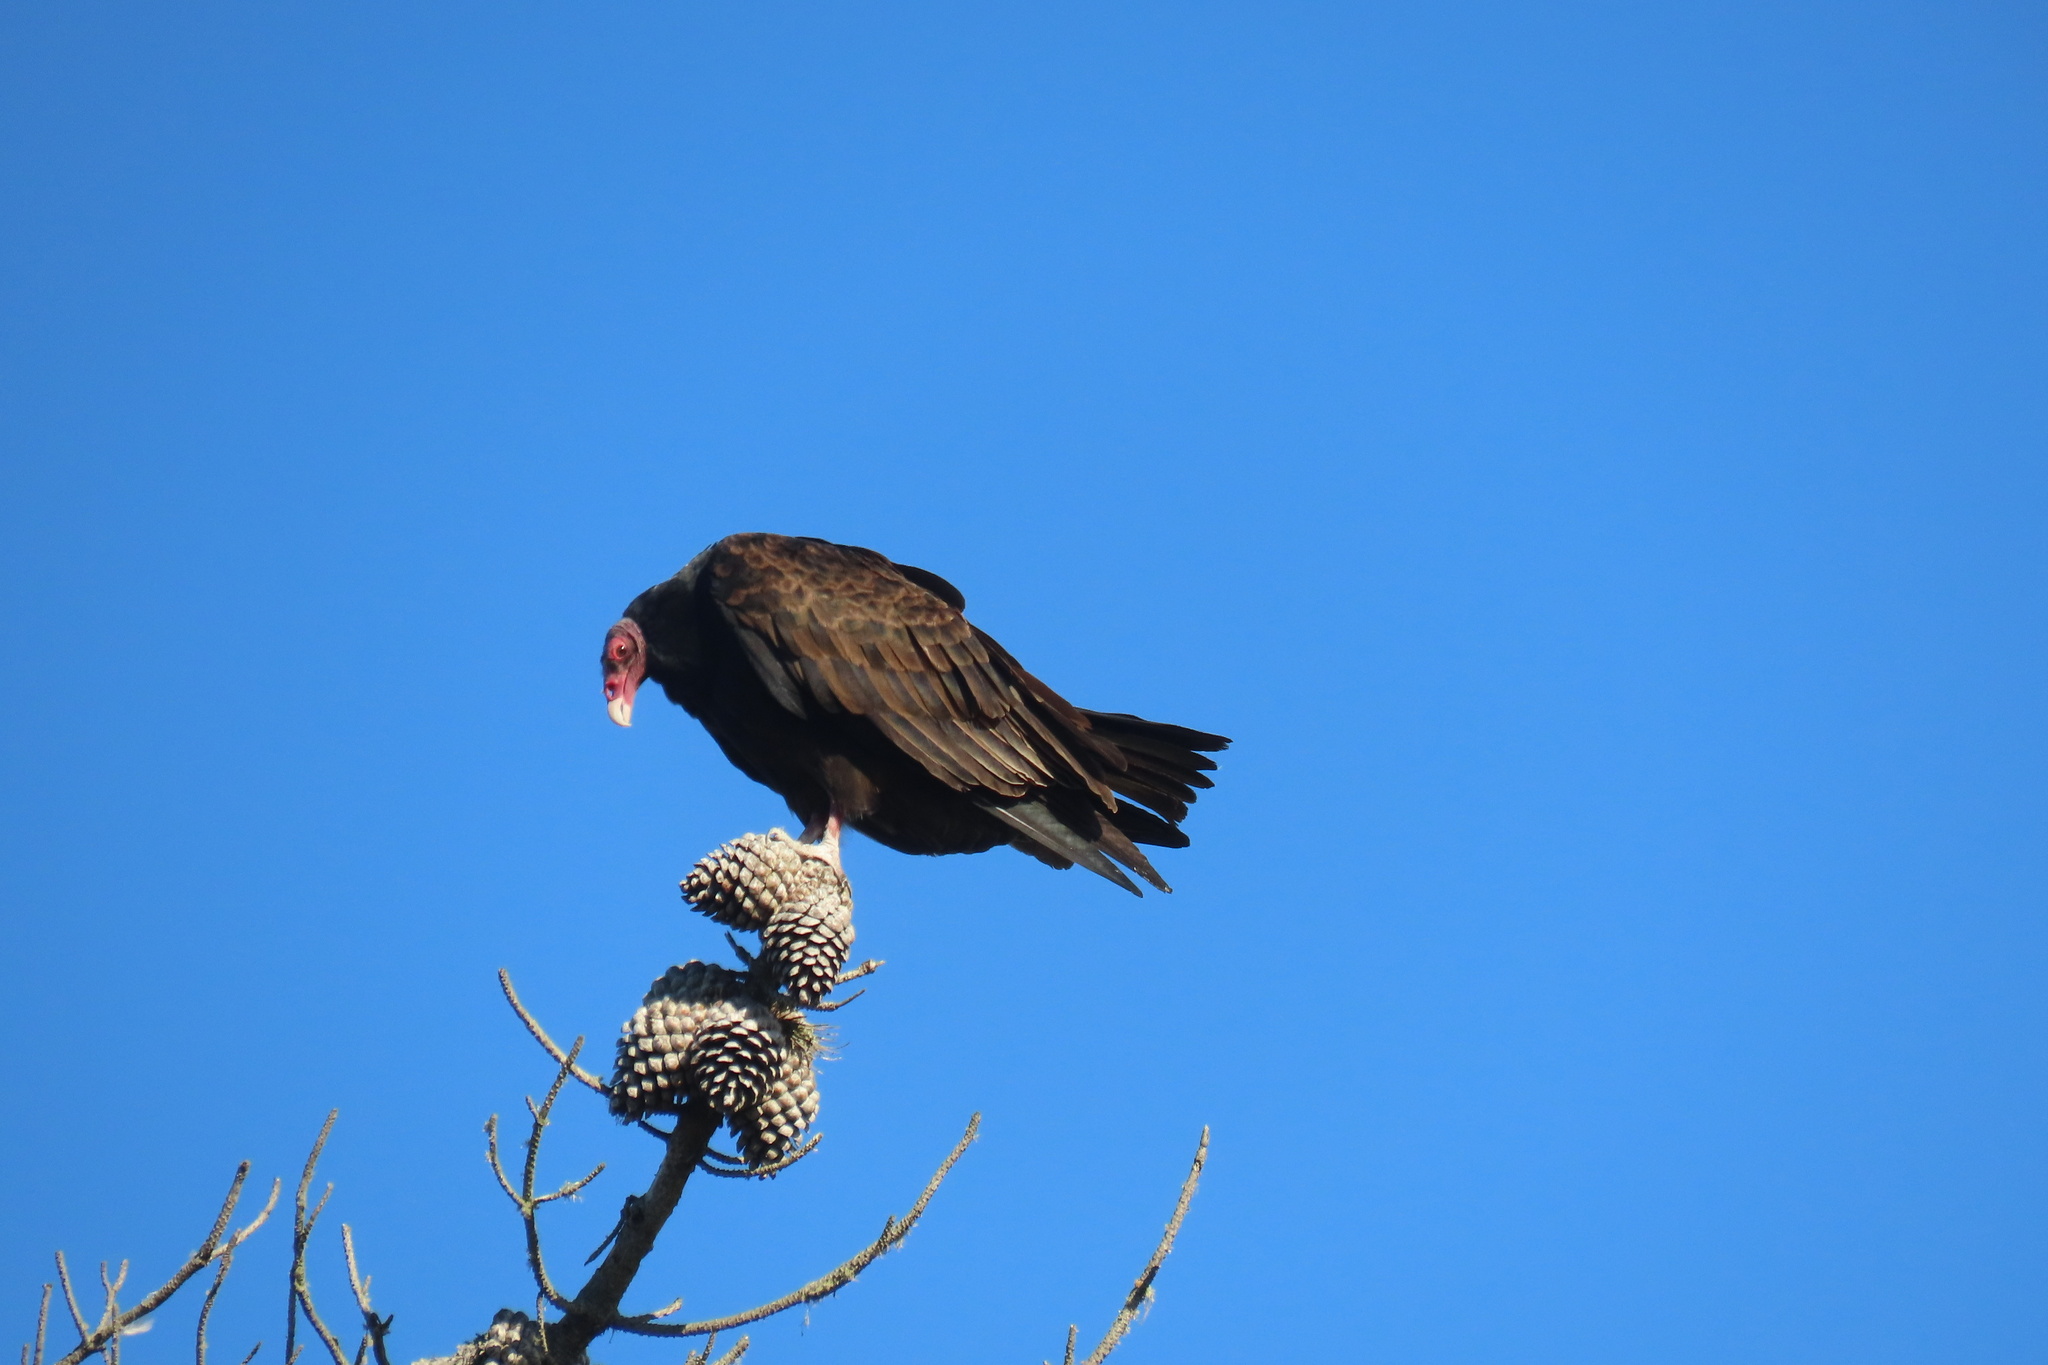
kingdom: Animalia
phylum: Chordata
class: Aves
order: Accipitriformes
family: Cathartidae
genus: Cathartes
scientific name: Cathartes aura
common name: Turkey vulture
